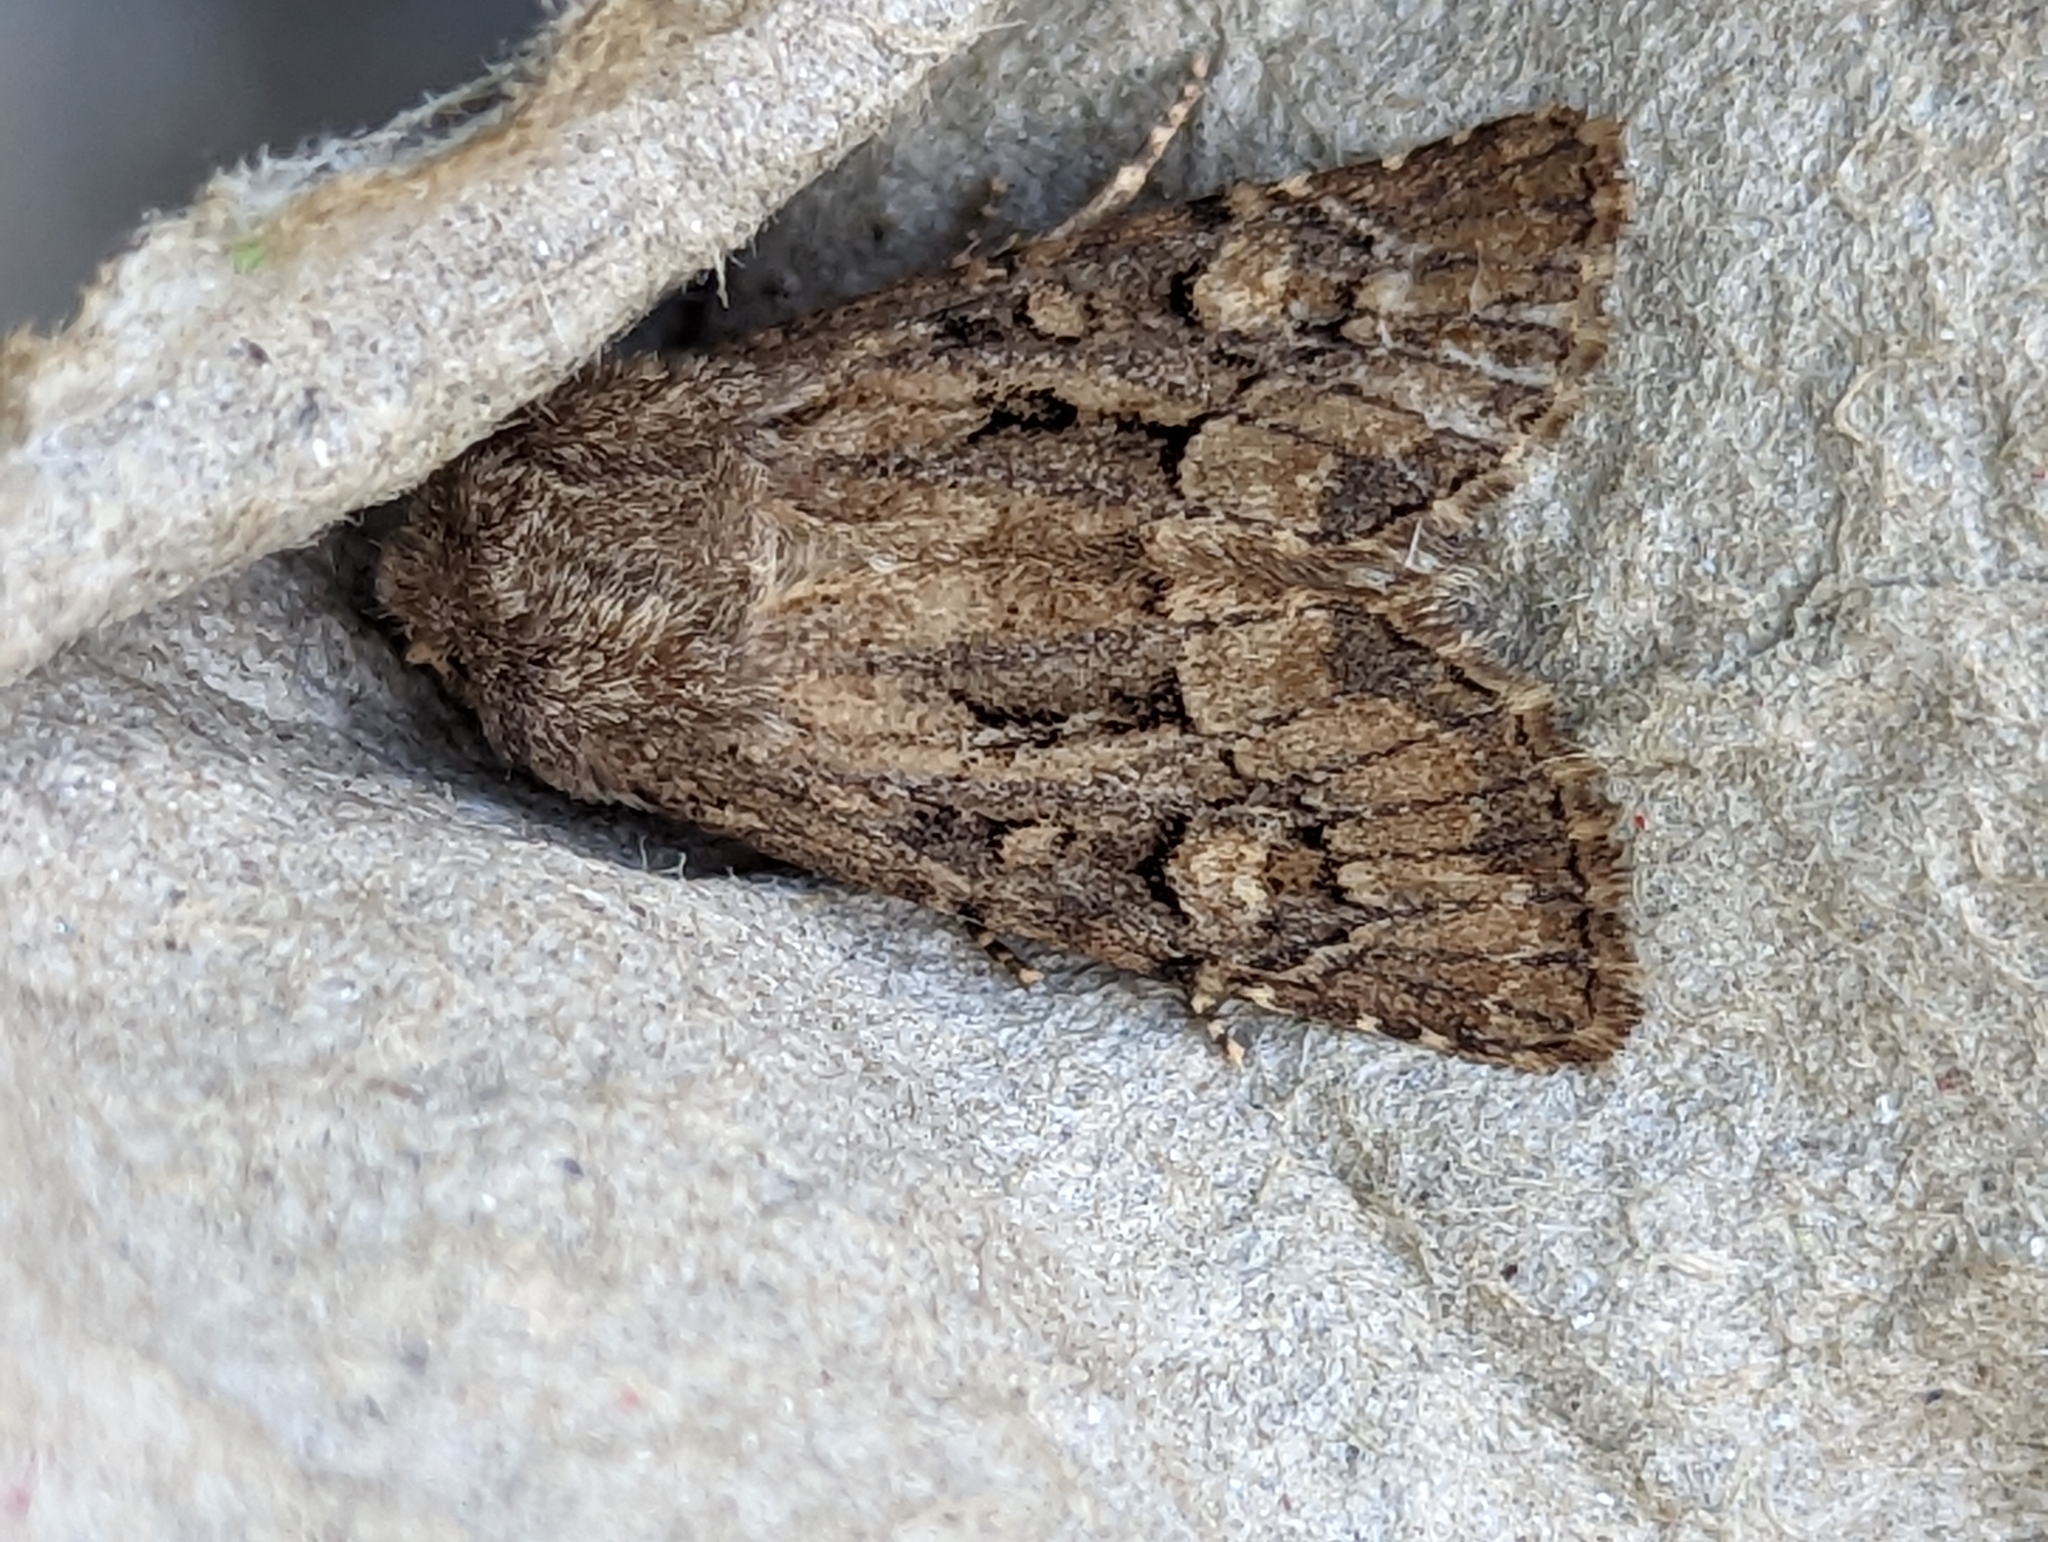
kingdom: Animalia
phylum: Arthropoda
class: Insecta
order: Lepidoptera
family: Noctuidae
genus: Luperina
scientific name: Luperina testacea
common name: Flounced rustic
